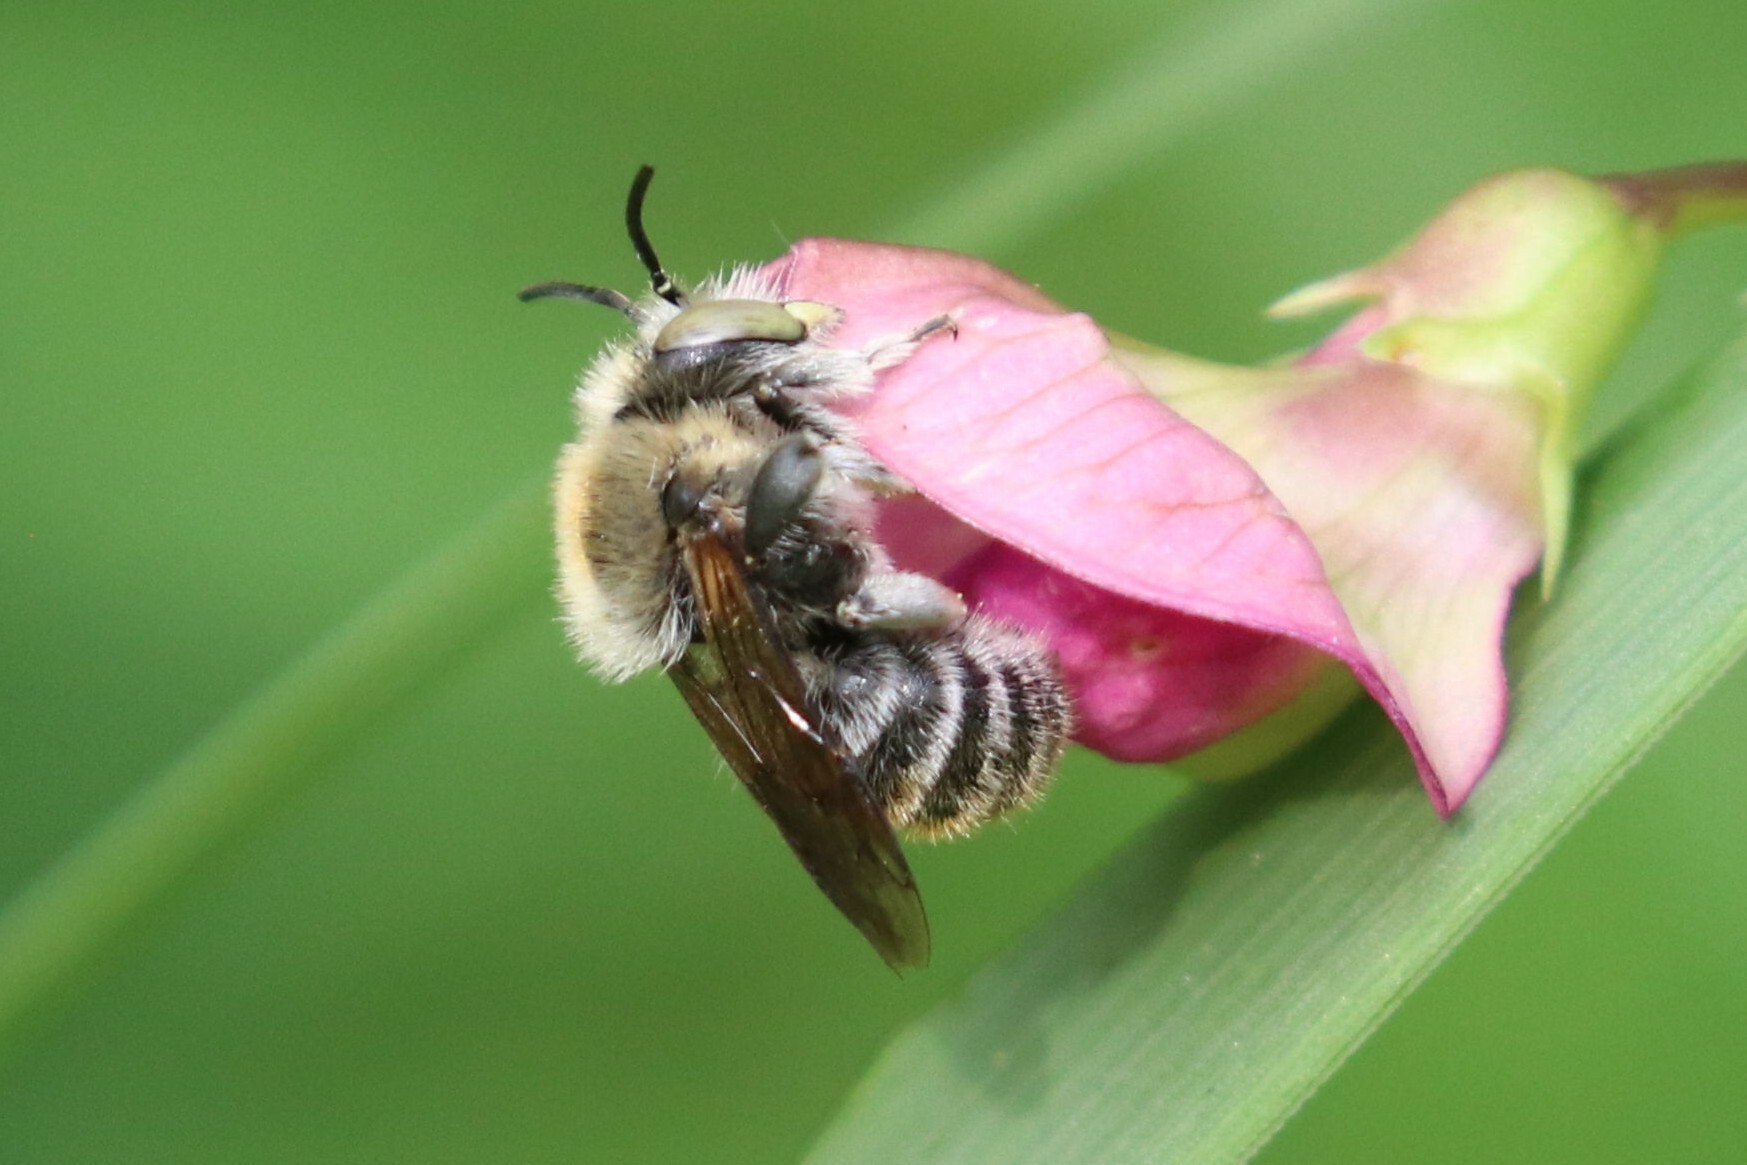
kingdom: Animalia
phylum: Arthropoda
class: Insecta
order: Hymenoptera
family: Megachilidae
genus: Trachusa
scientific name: Trachusa byssina
